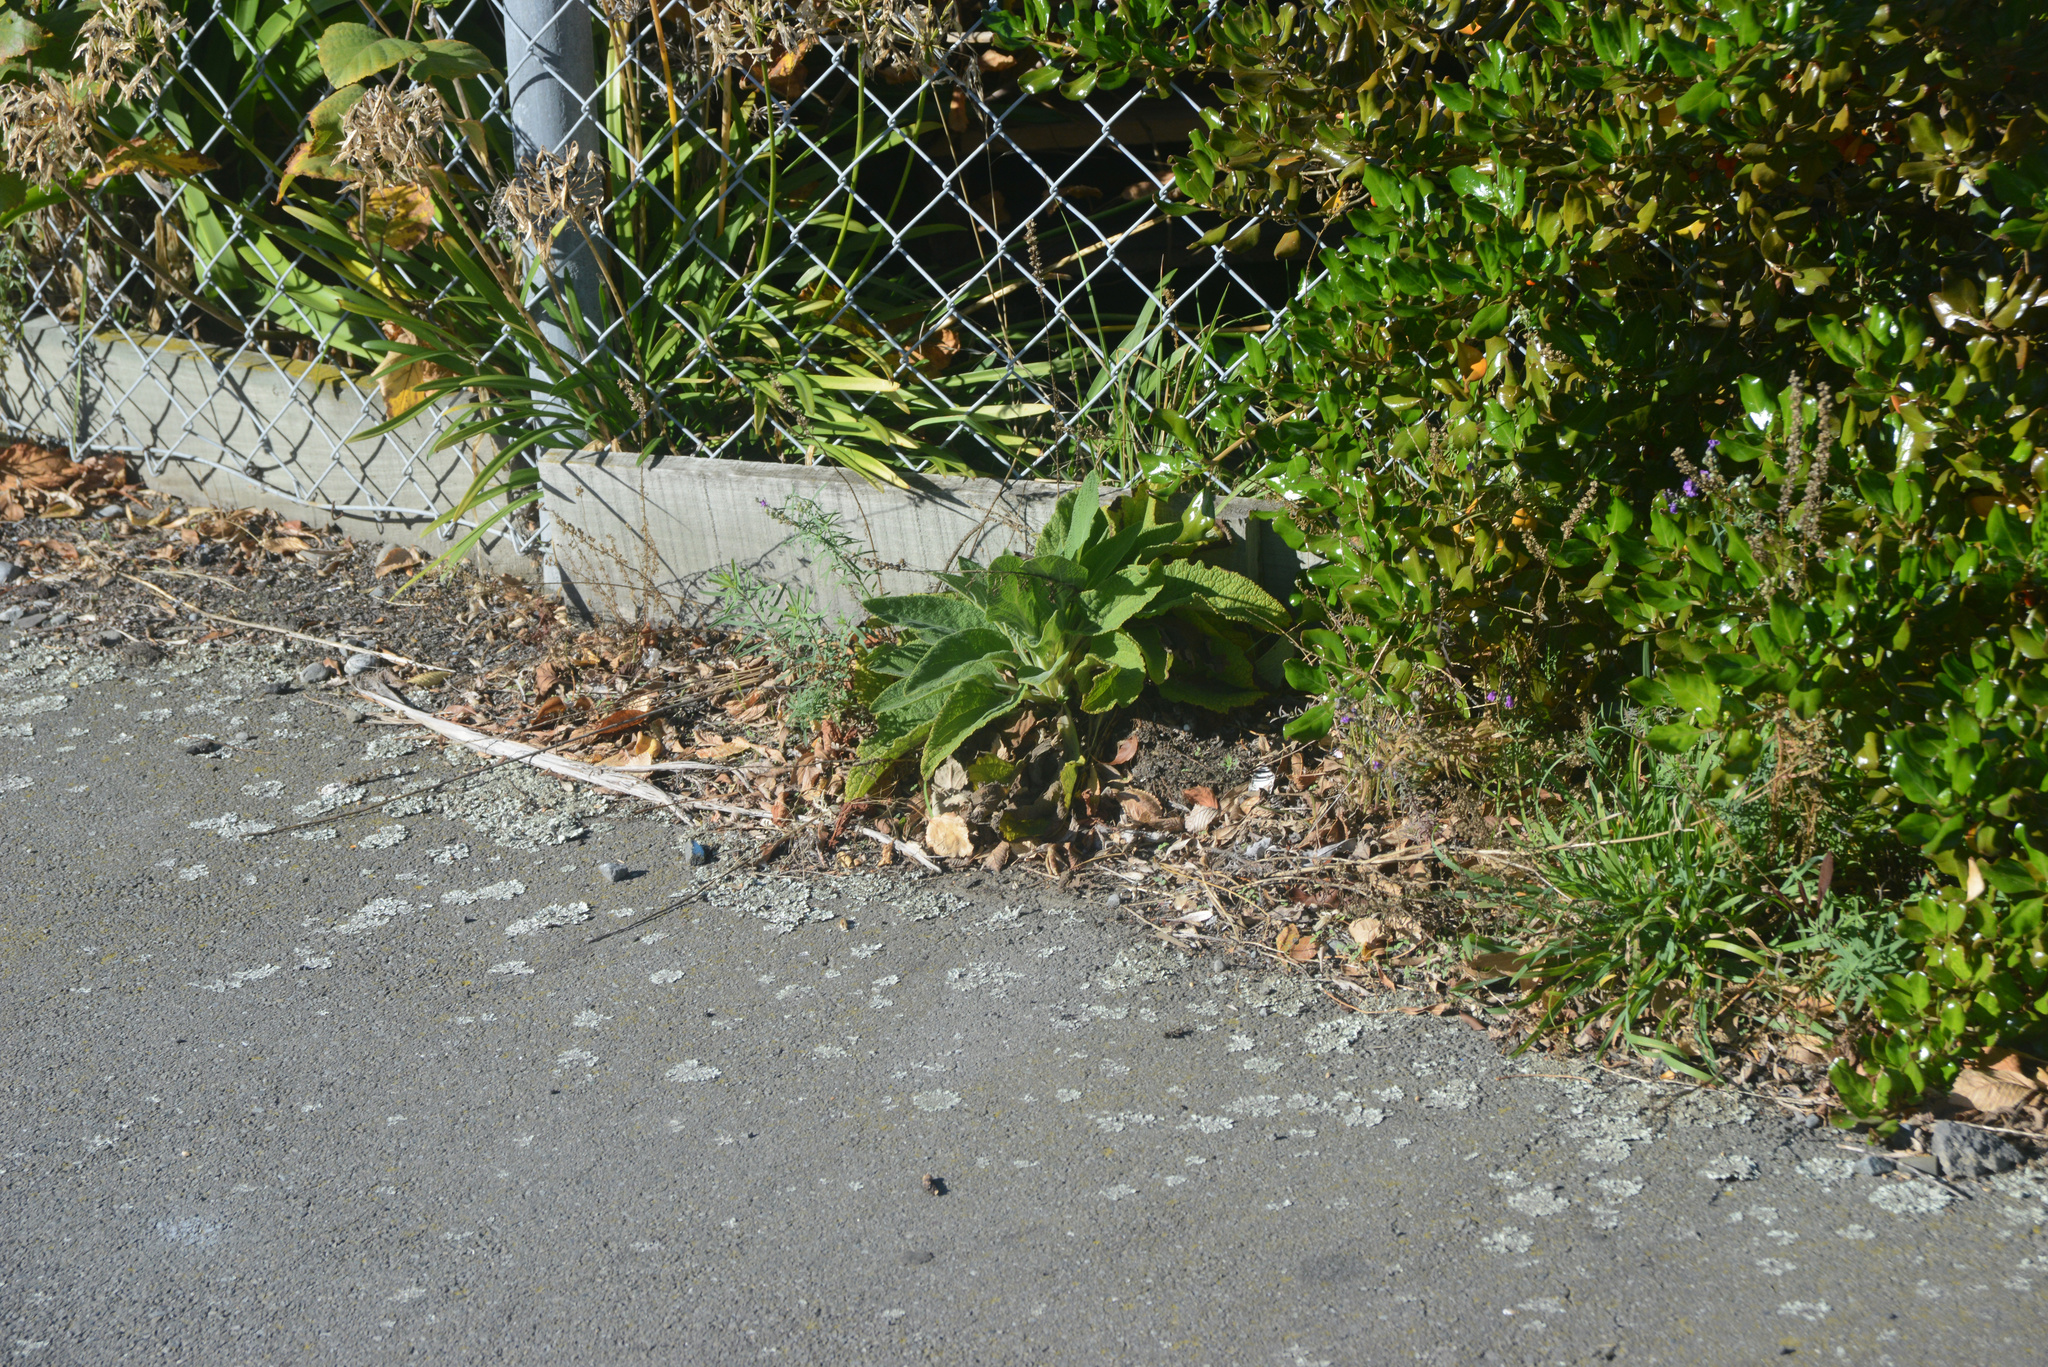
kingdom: Plantae
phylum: Tracheophyta
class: Magnoliopsida
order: Lamiales
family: Plantaginaceae
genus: Digitalis
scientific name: Digitalis purpurea
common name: Foxglove
